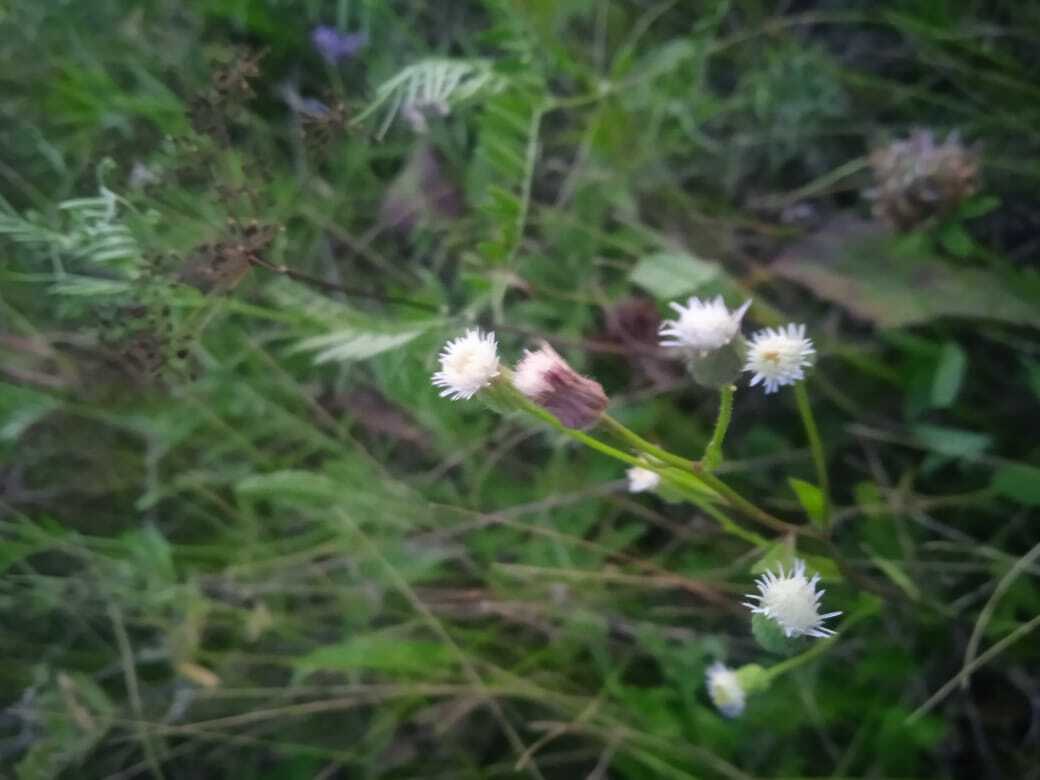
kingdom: Plantae
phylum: Tracheophyta
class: Magnoliopsida
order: Asterales
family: Asteraceae
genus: Erigeron
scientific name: Erigeron acris
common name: Blue fleabane
